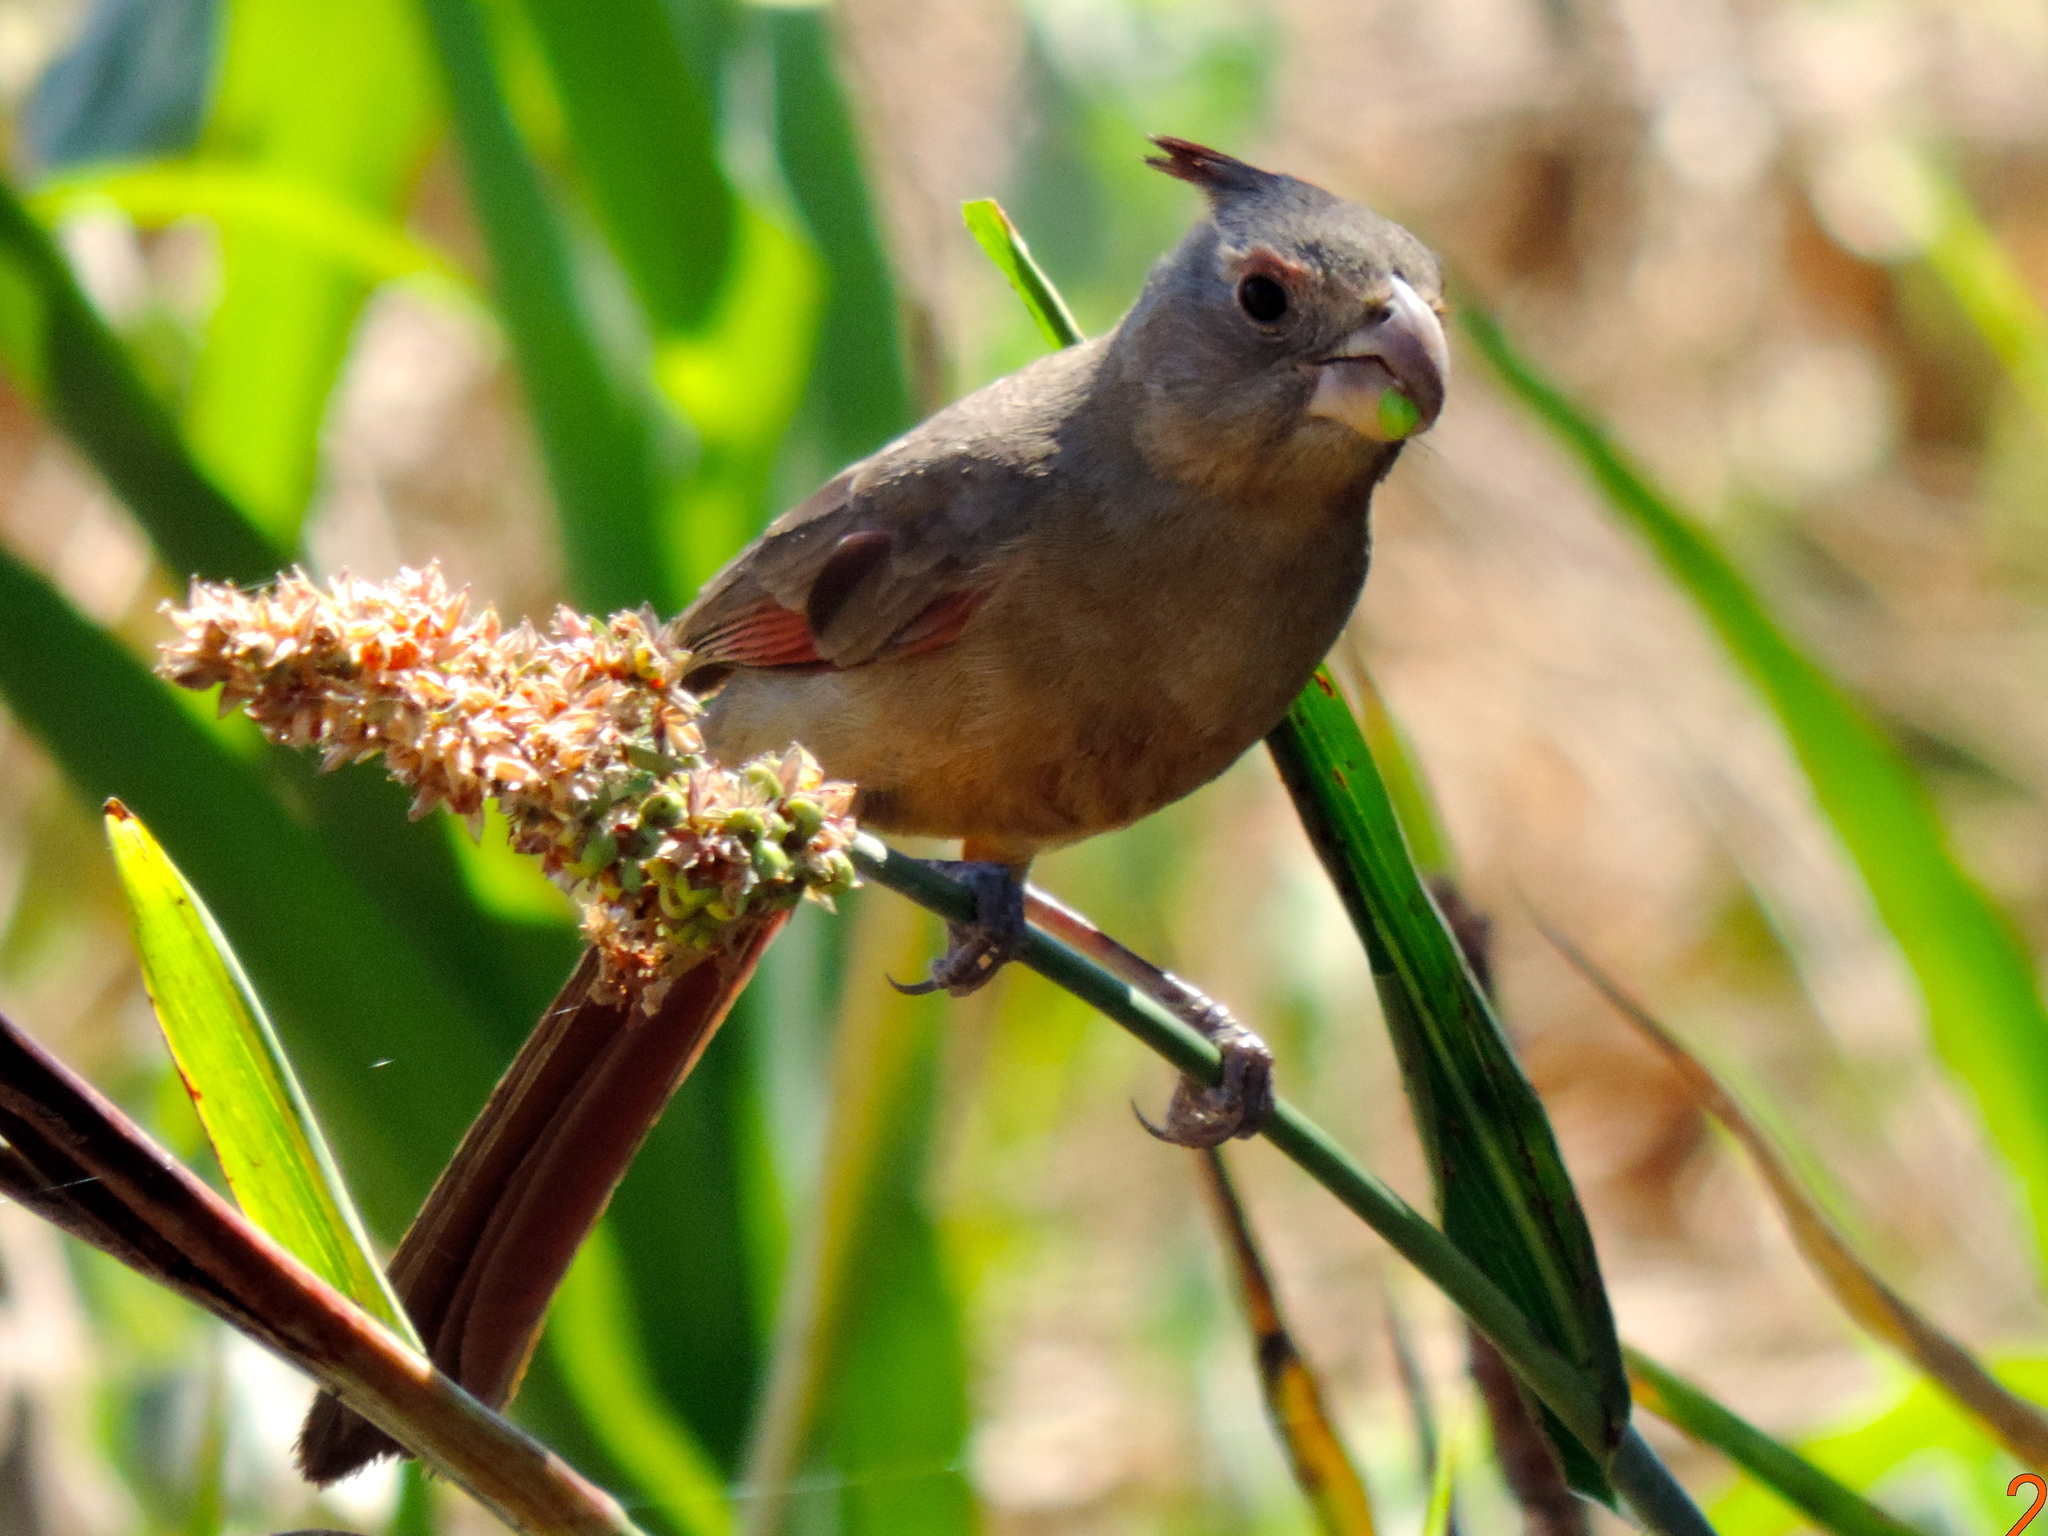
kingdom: Animalia
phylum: Chordata
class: Aves
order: Passeriformes
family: Cardinalidae
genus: Cardinalis
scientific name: Cardinalis sinuatus
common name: Pyrrhuloxia
